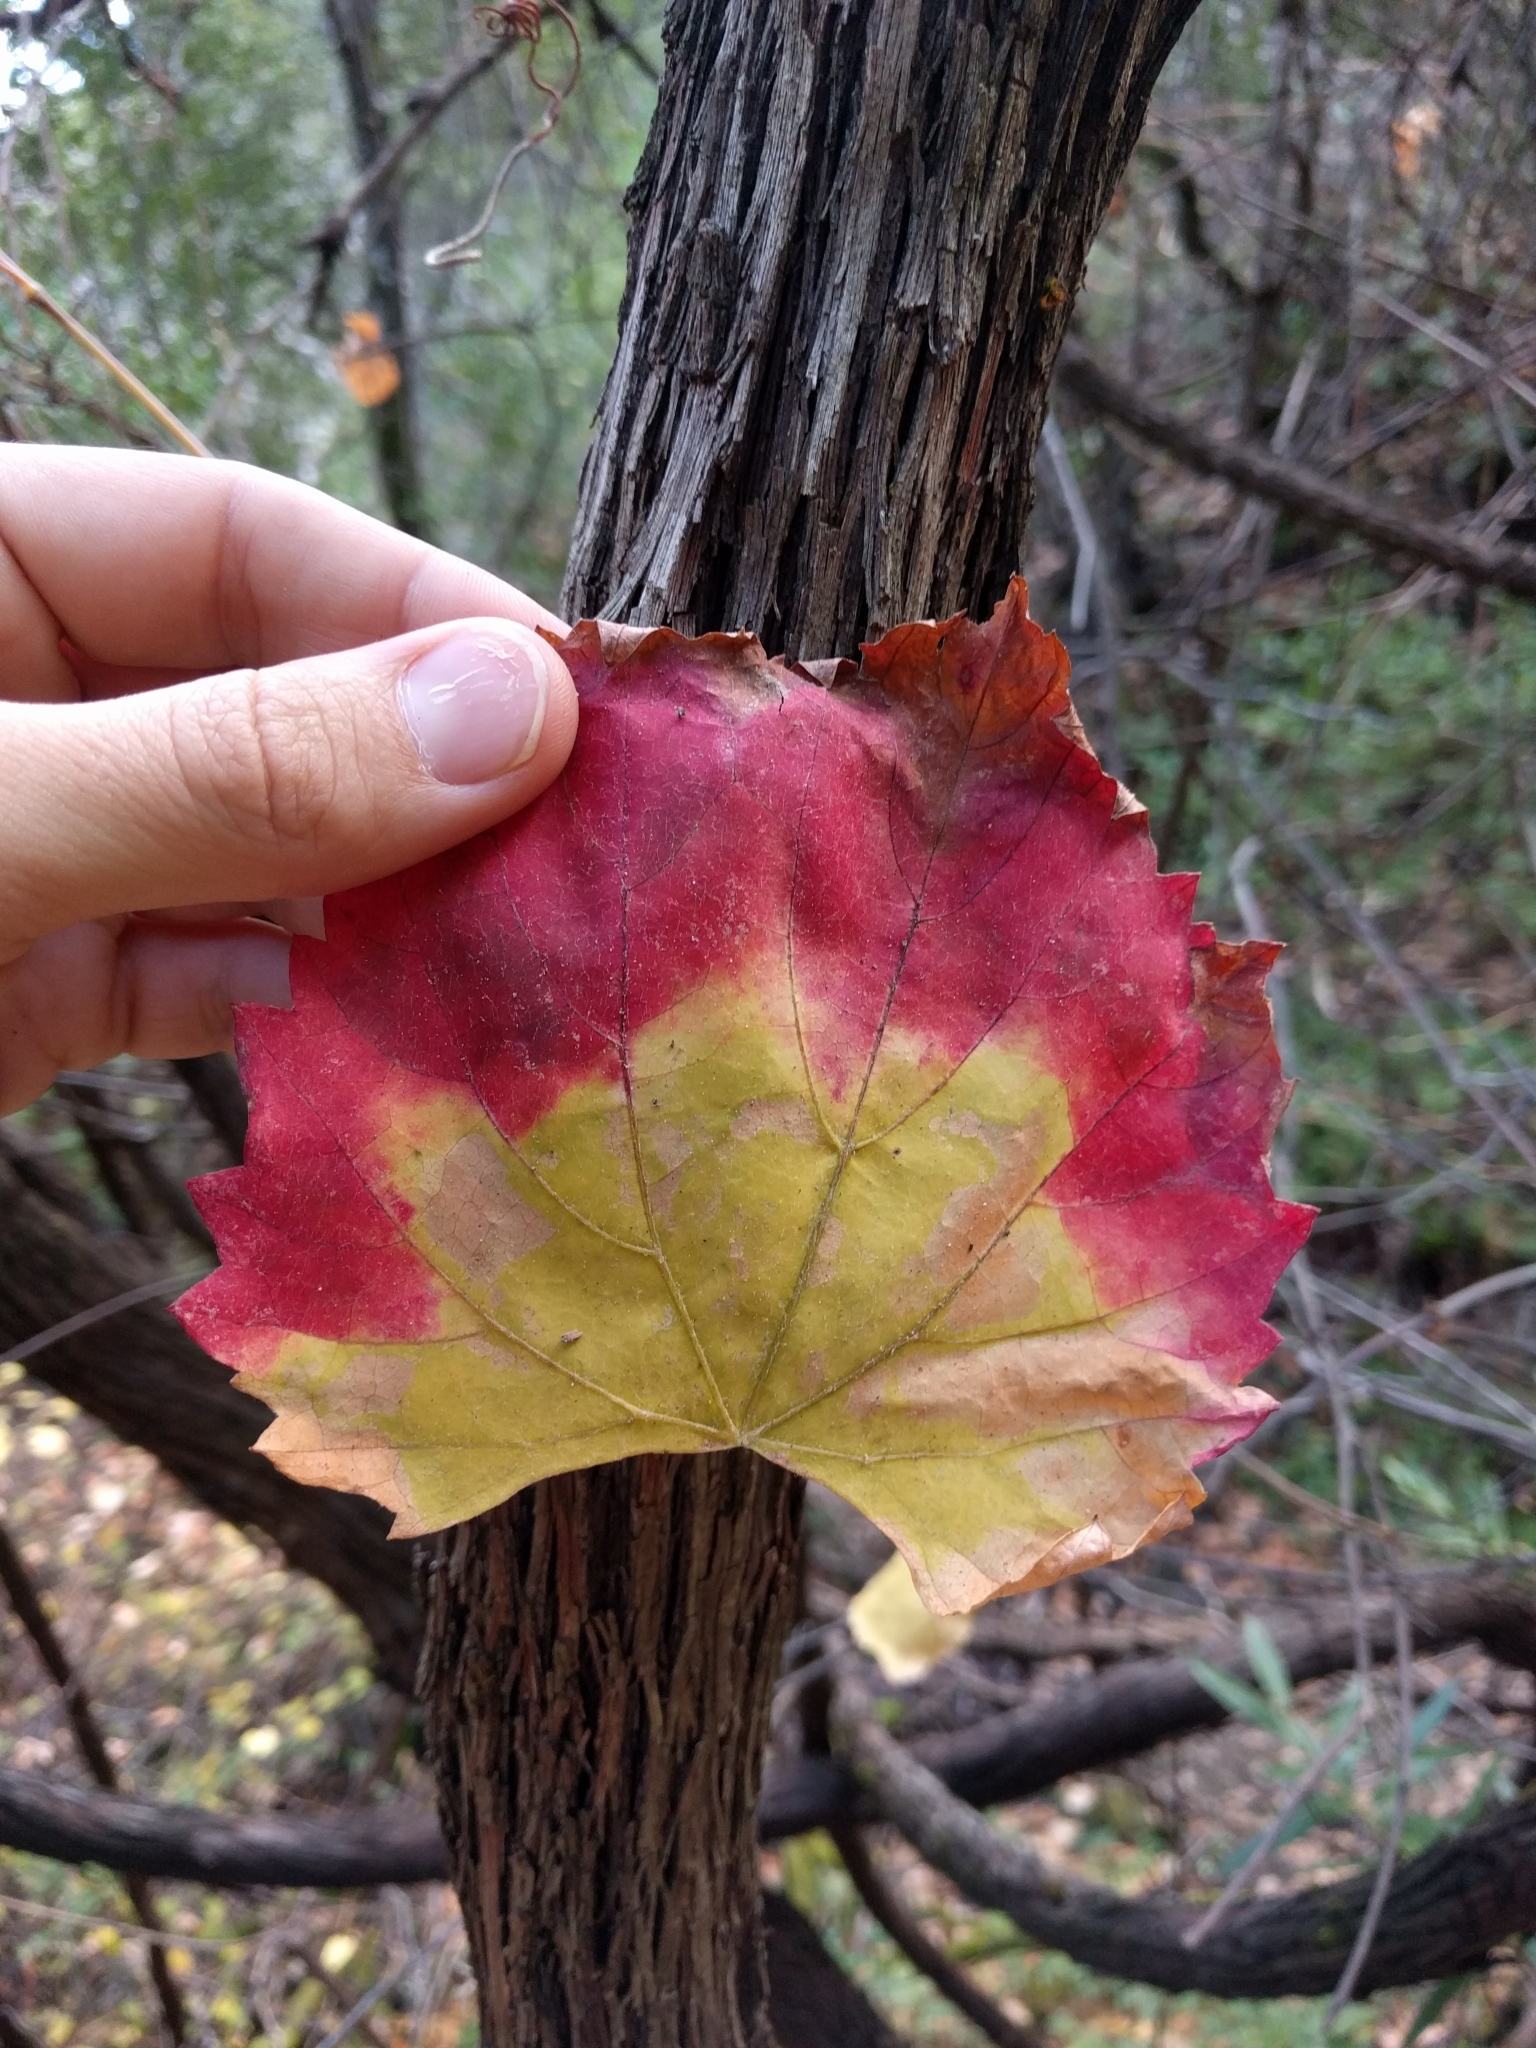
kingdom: Plantae
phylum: Tracheophyta
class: Magnoliopsida
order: Vitales
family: Vitaceae
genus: Vitis
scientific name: Vitis californica
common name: California wild grape
